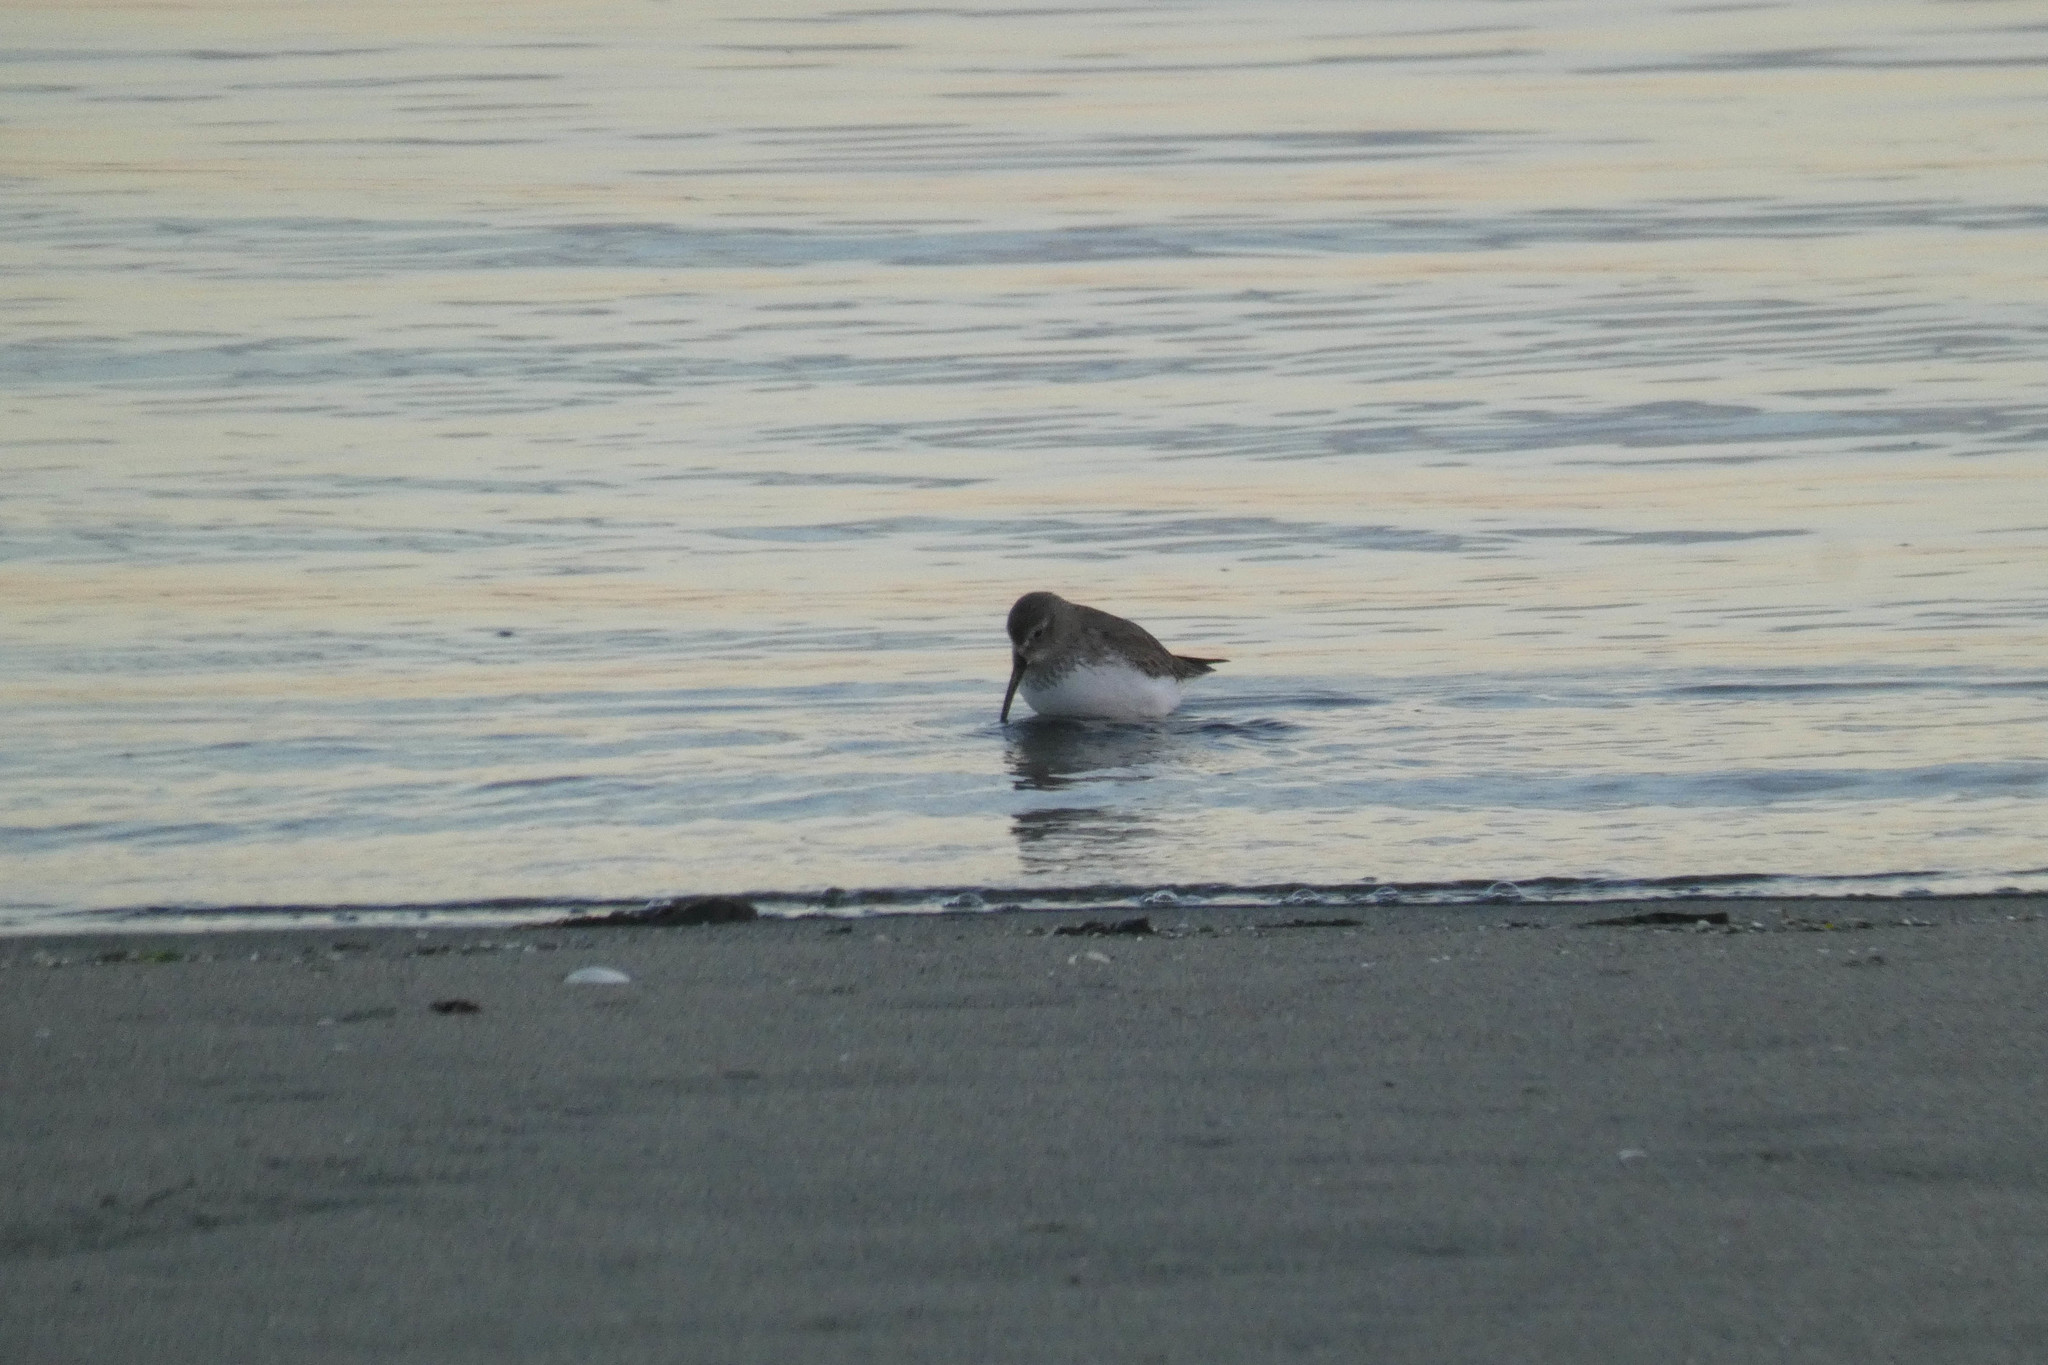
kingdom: Animalia
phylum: Chordata
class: Aves
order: Charadriiformes
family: Scolopacidae
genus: Calidris
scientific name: Calidris alpina
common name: Dunlin
